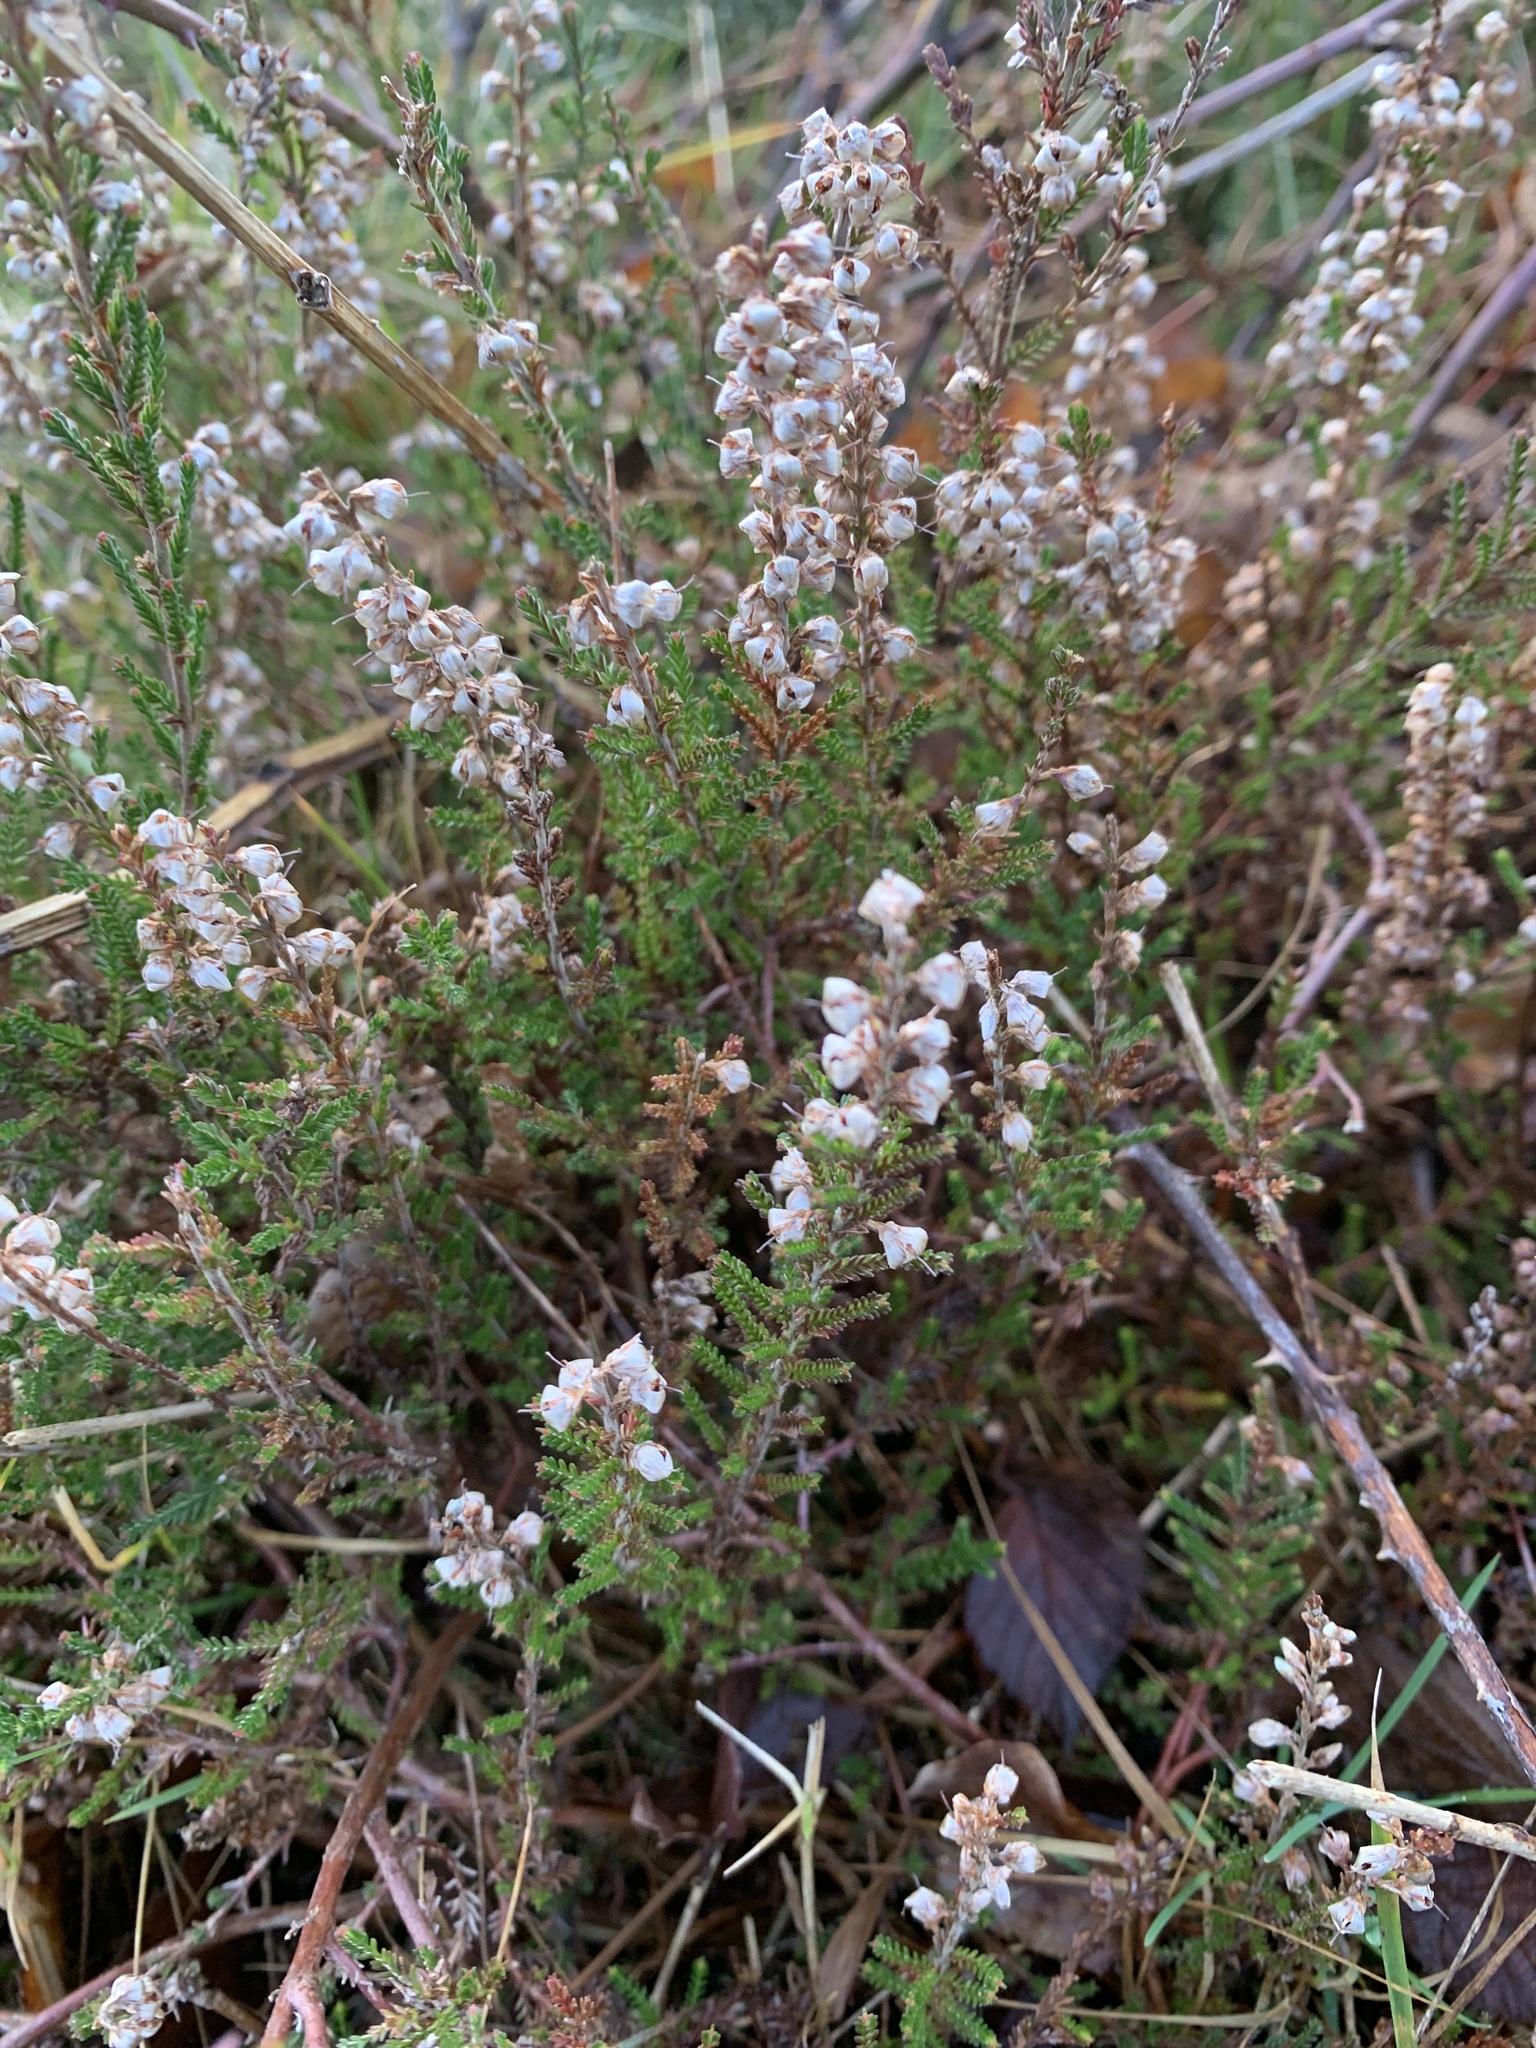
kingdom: Plantae
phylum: Tracheophyta
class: Magnoliopsida
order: Ericales
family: Ericaceae
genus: Calluna
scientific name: Calluna vulgaris
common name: Heather
